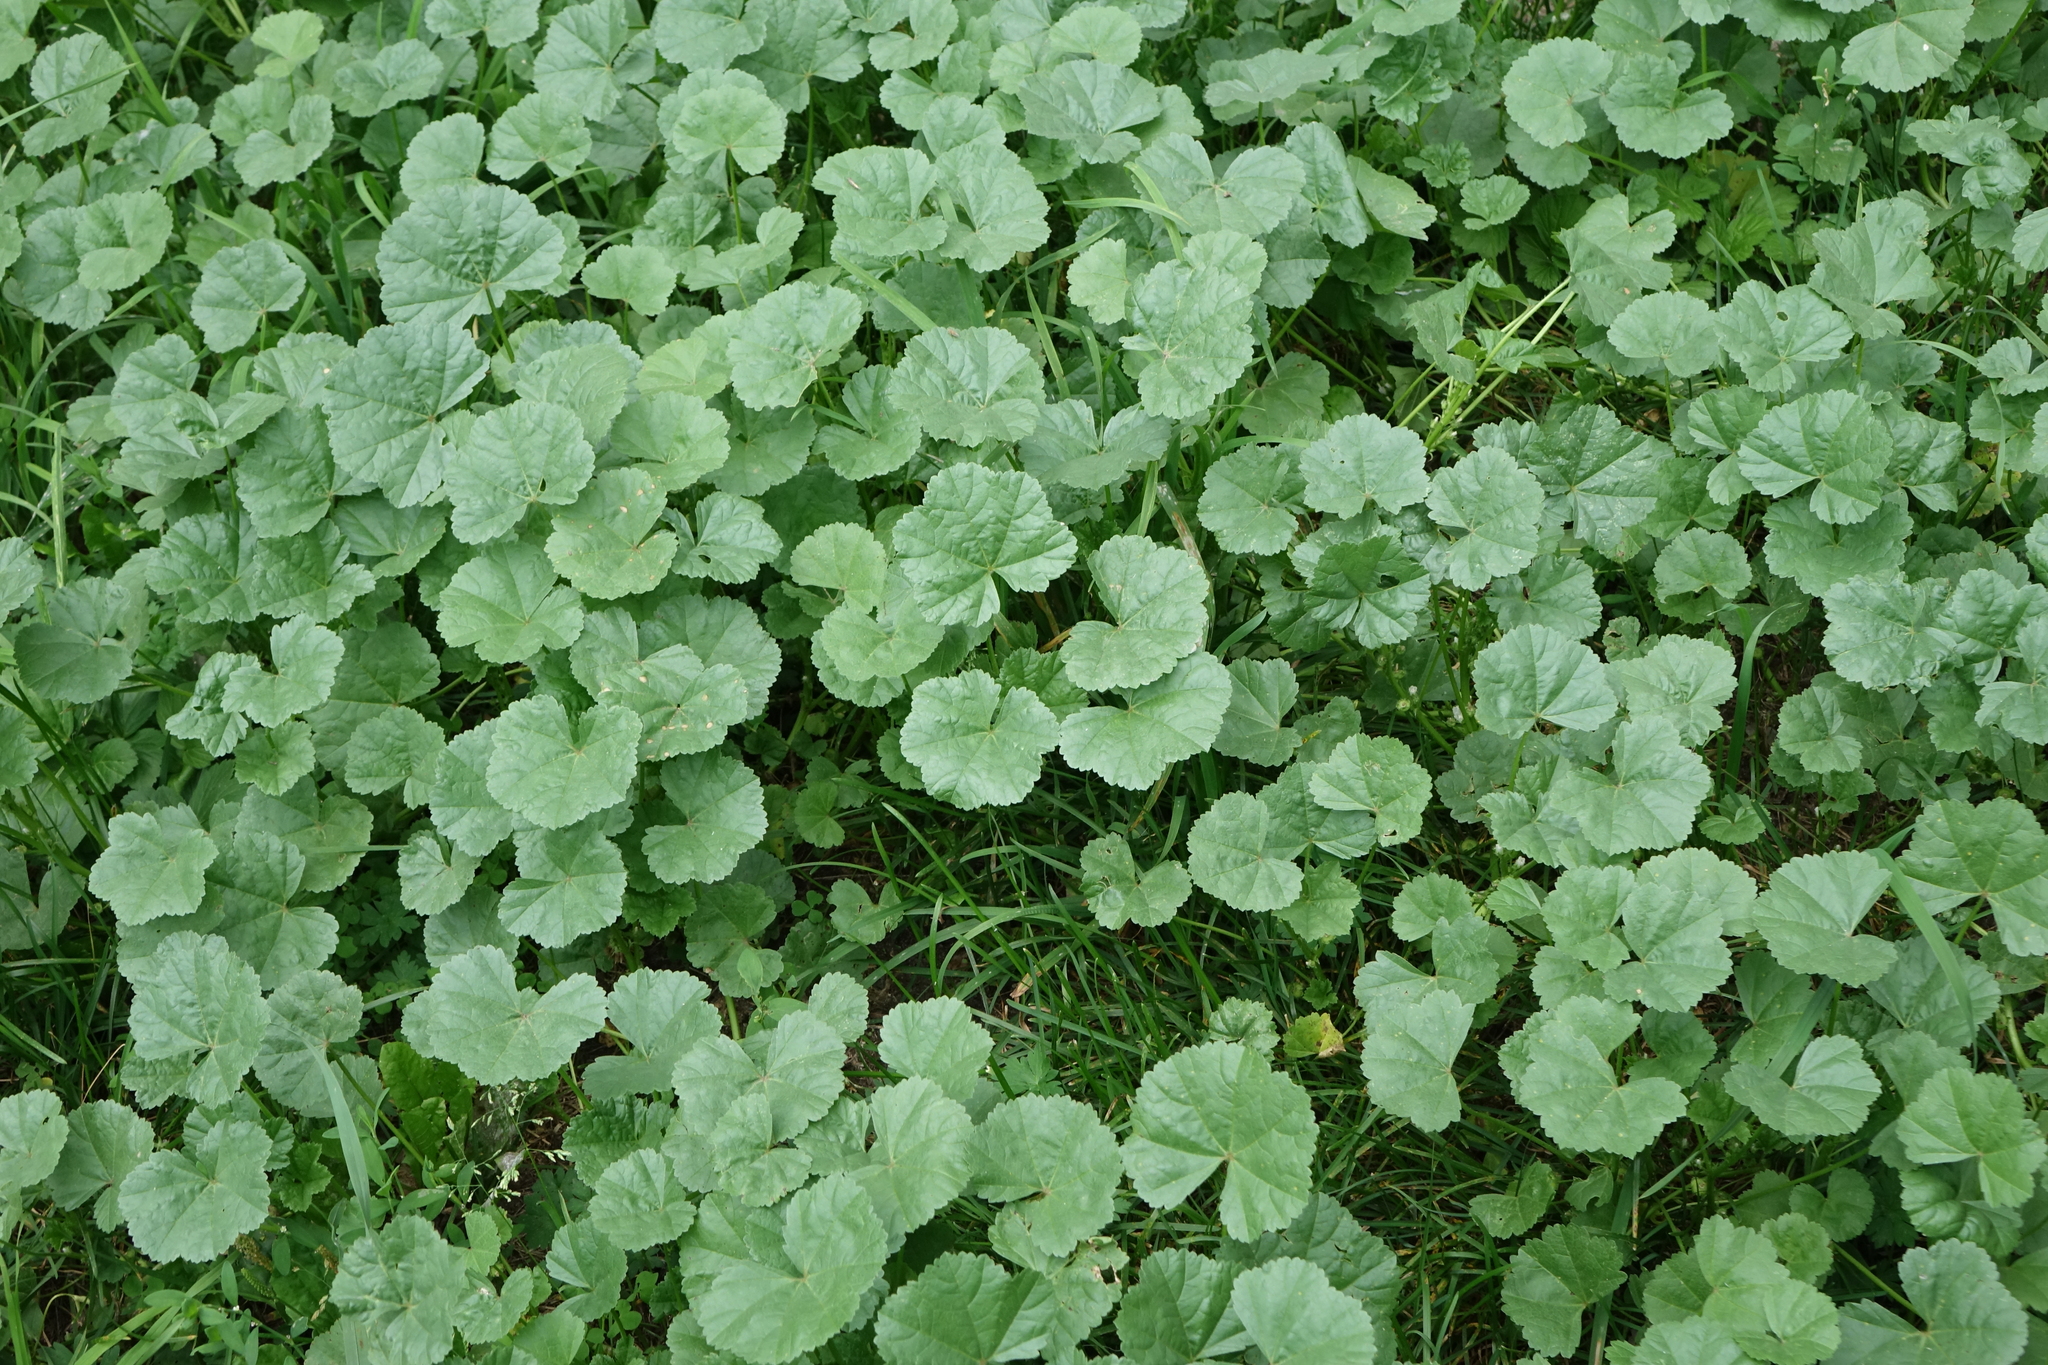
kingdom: Plantae
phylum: Tracheophyta
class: Magnoliopsida
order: Malvales
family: Malvaceae
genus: Malva
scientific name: Malva pusilla
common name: Small mallow
